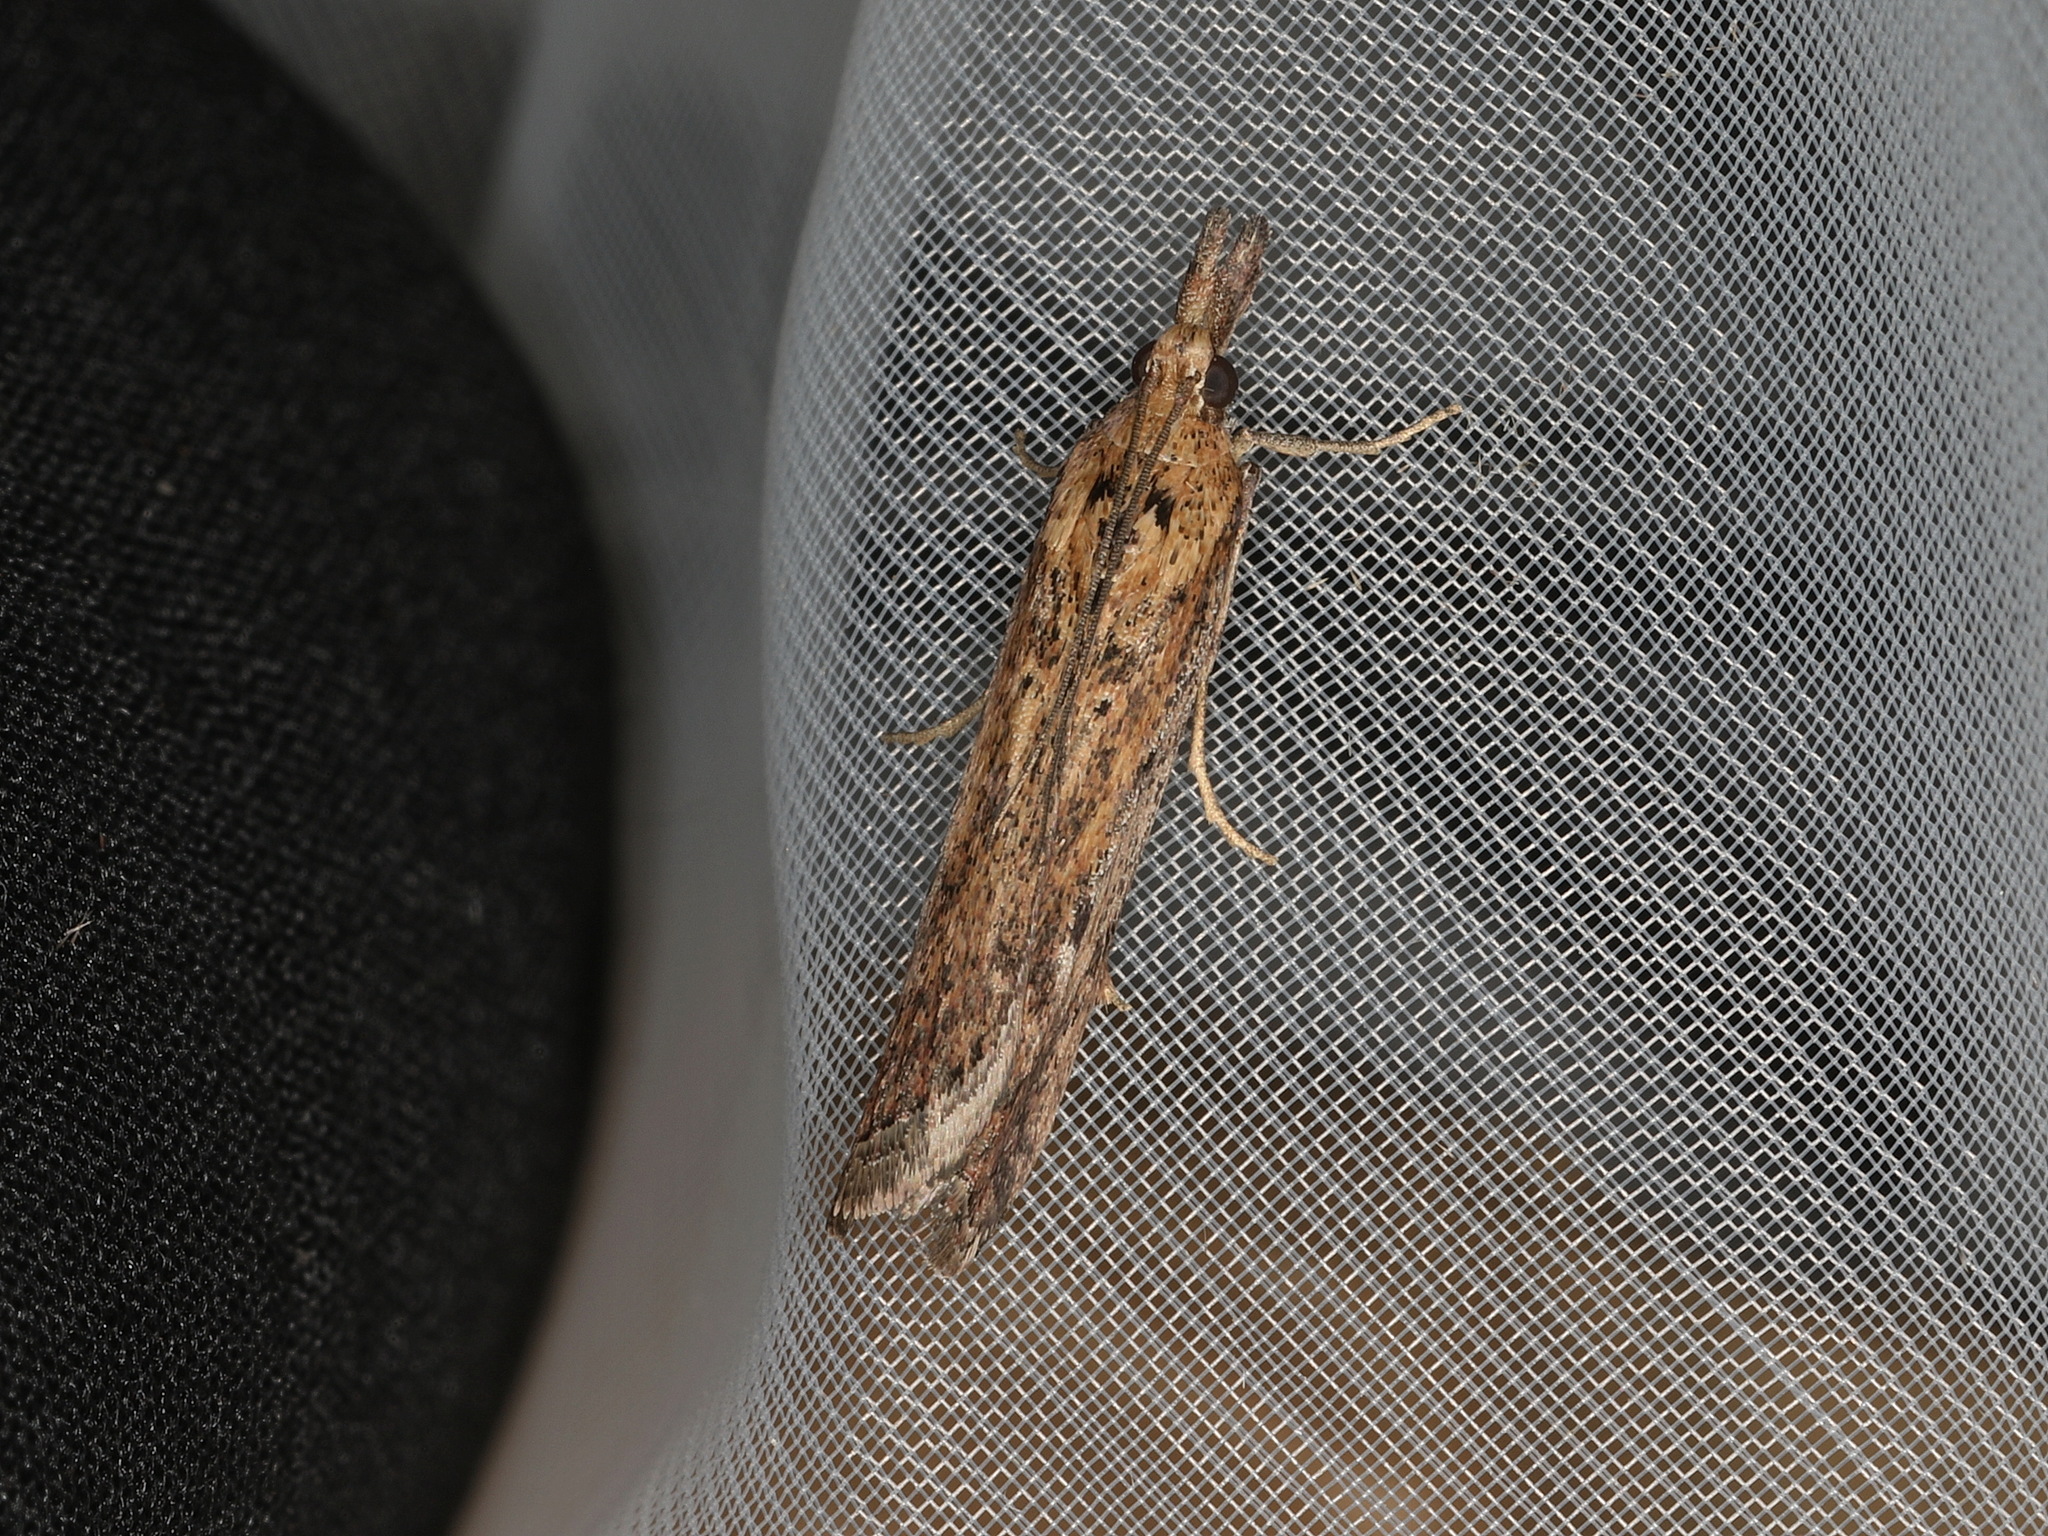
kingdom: Animalia
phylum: Arthropoda
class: Insecta
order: Lepidoptera
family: Pyralidae
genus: Faveria
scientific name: Faveria tritalis
